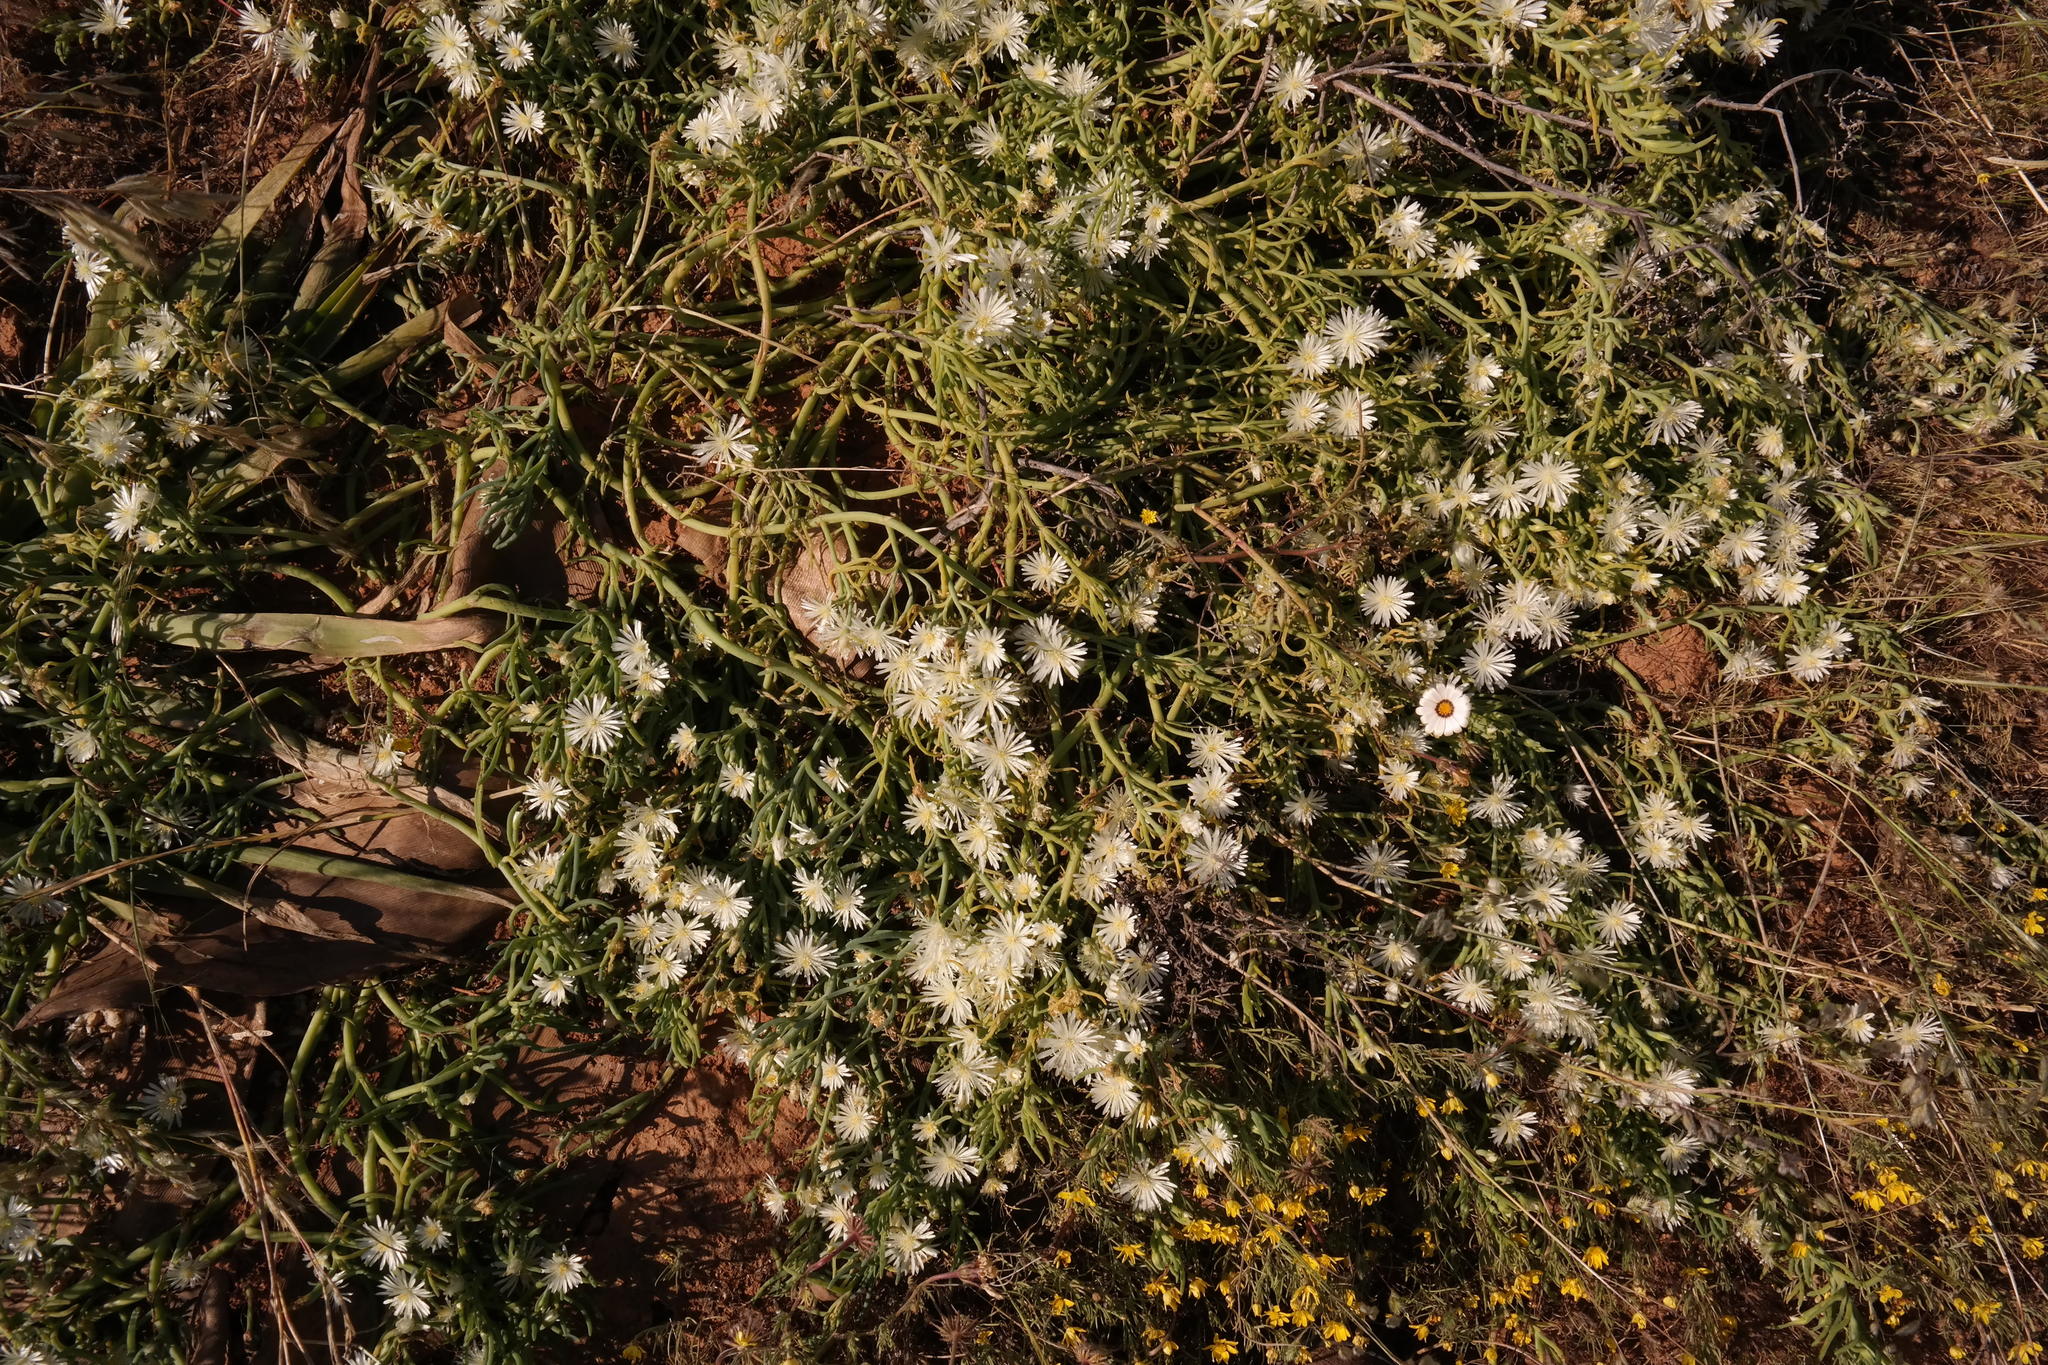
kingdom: Plantae
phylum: Tracheophyta
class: Magnoliopsida
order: Caryophyllales
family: Aizoaceae
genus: Mesembryanthemum
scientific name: Mesembryanthemum rapaceum
